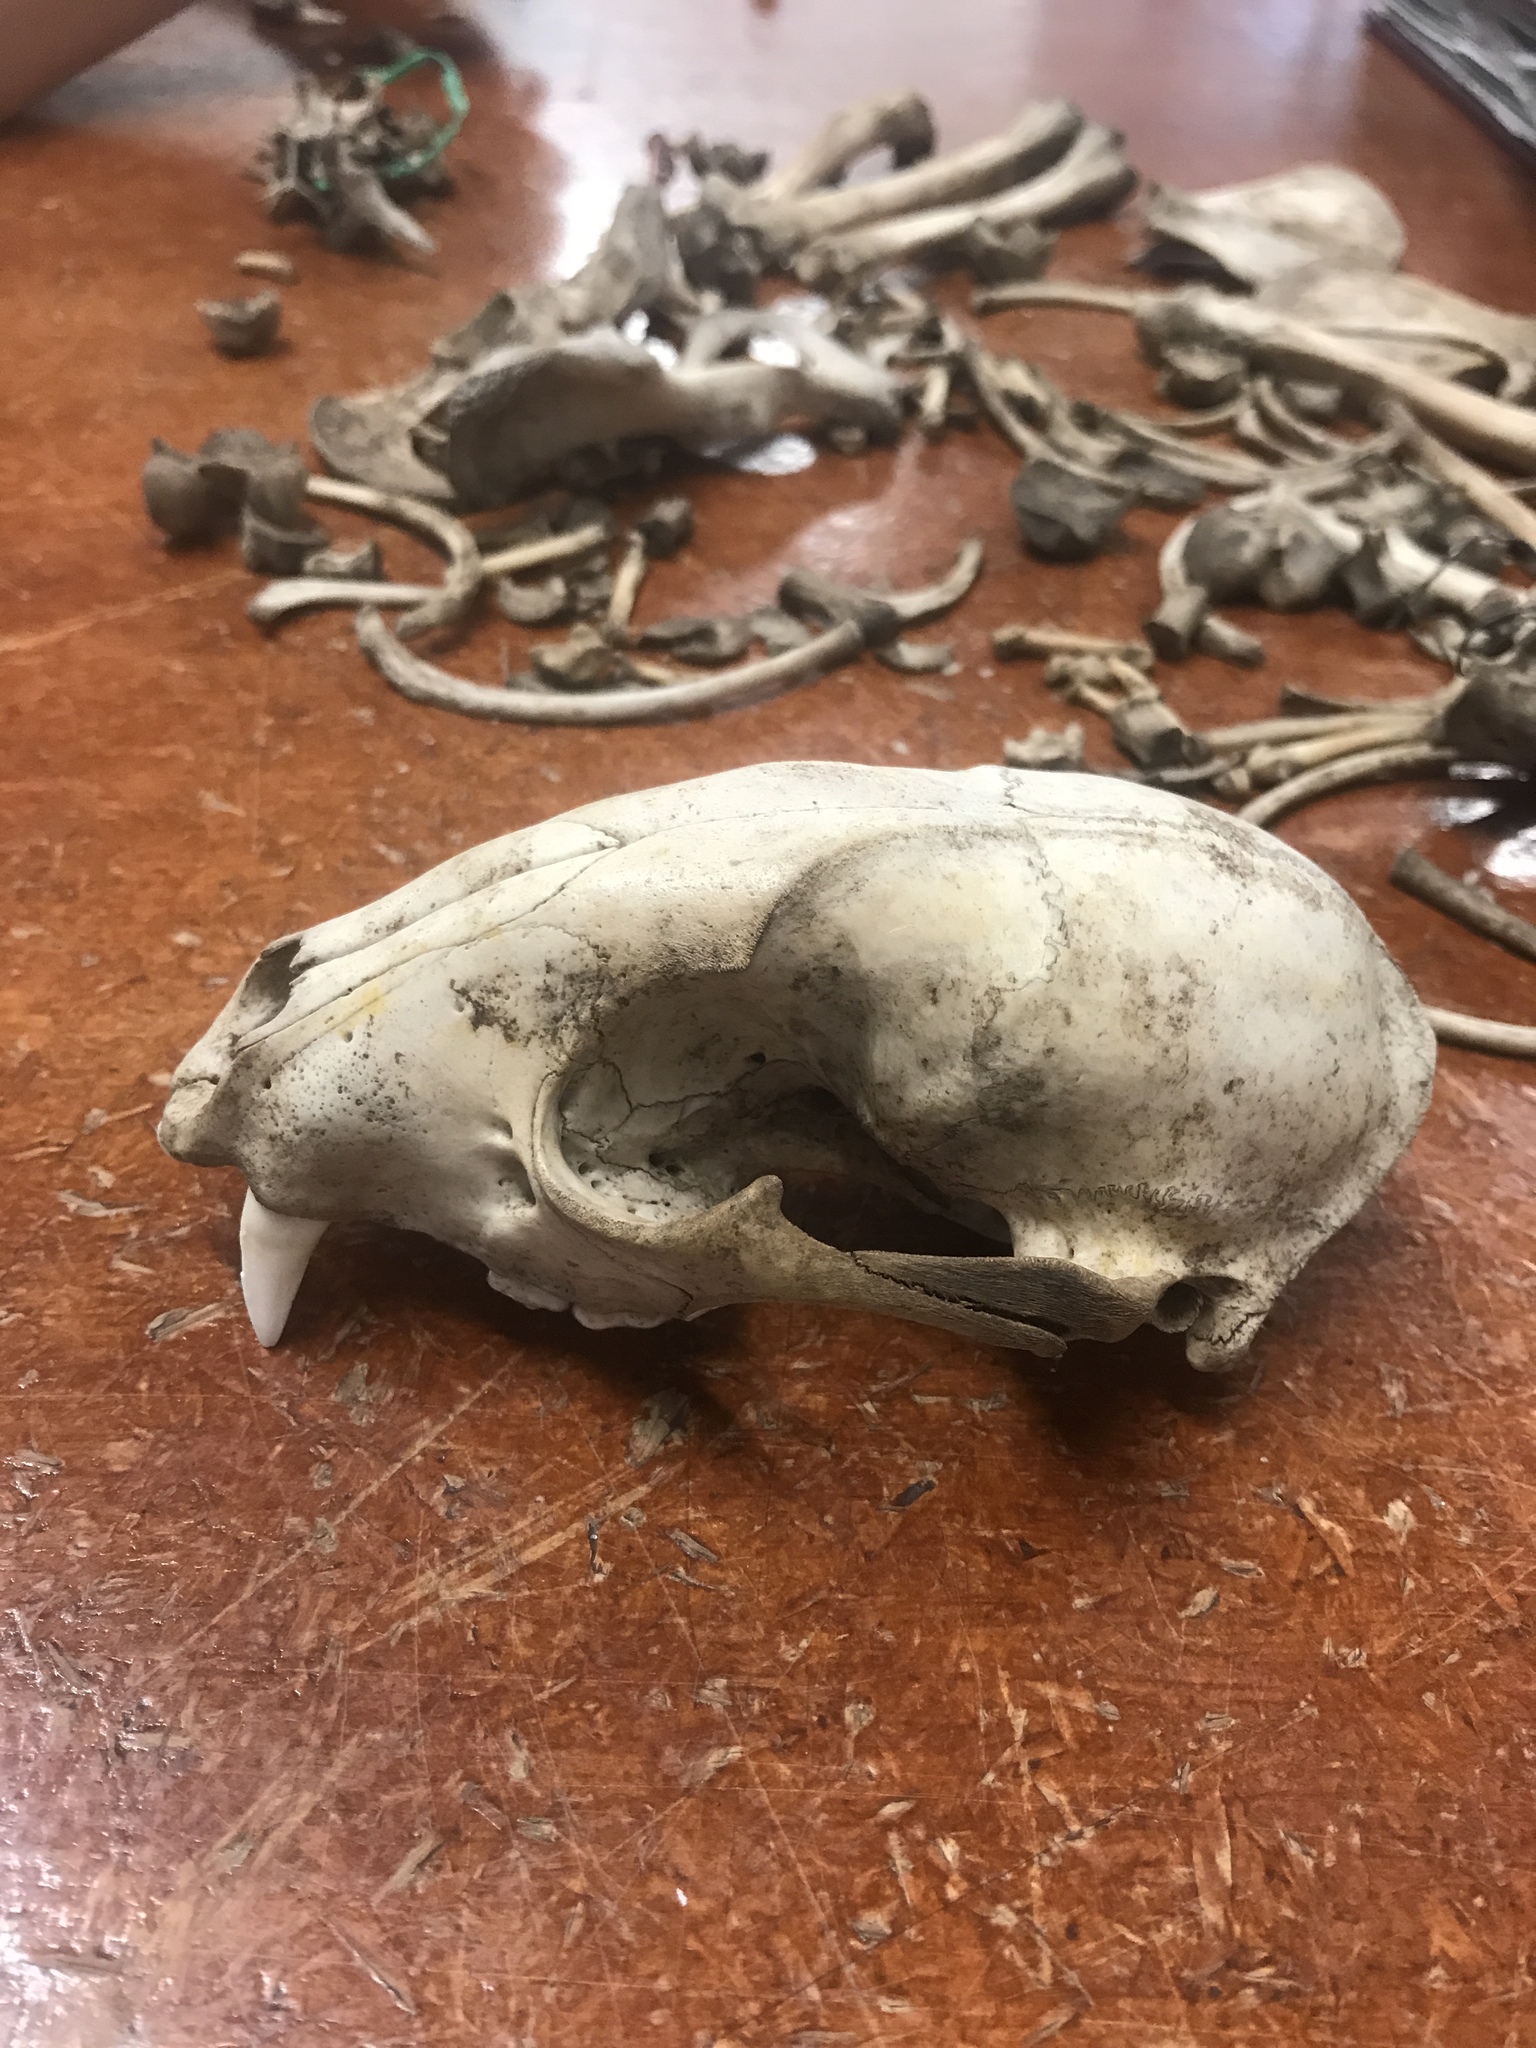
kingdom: Animalia
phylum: Chordata
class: Mammalia
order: Carnivora
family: Procyonidae
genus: Procyon
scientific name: Procyon lotor
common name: Raccoon
